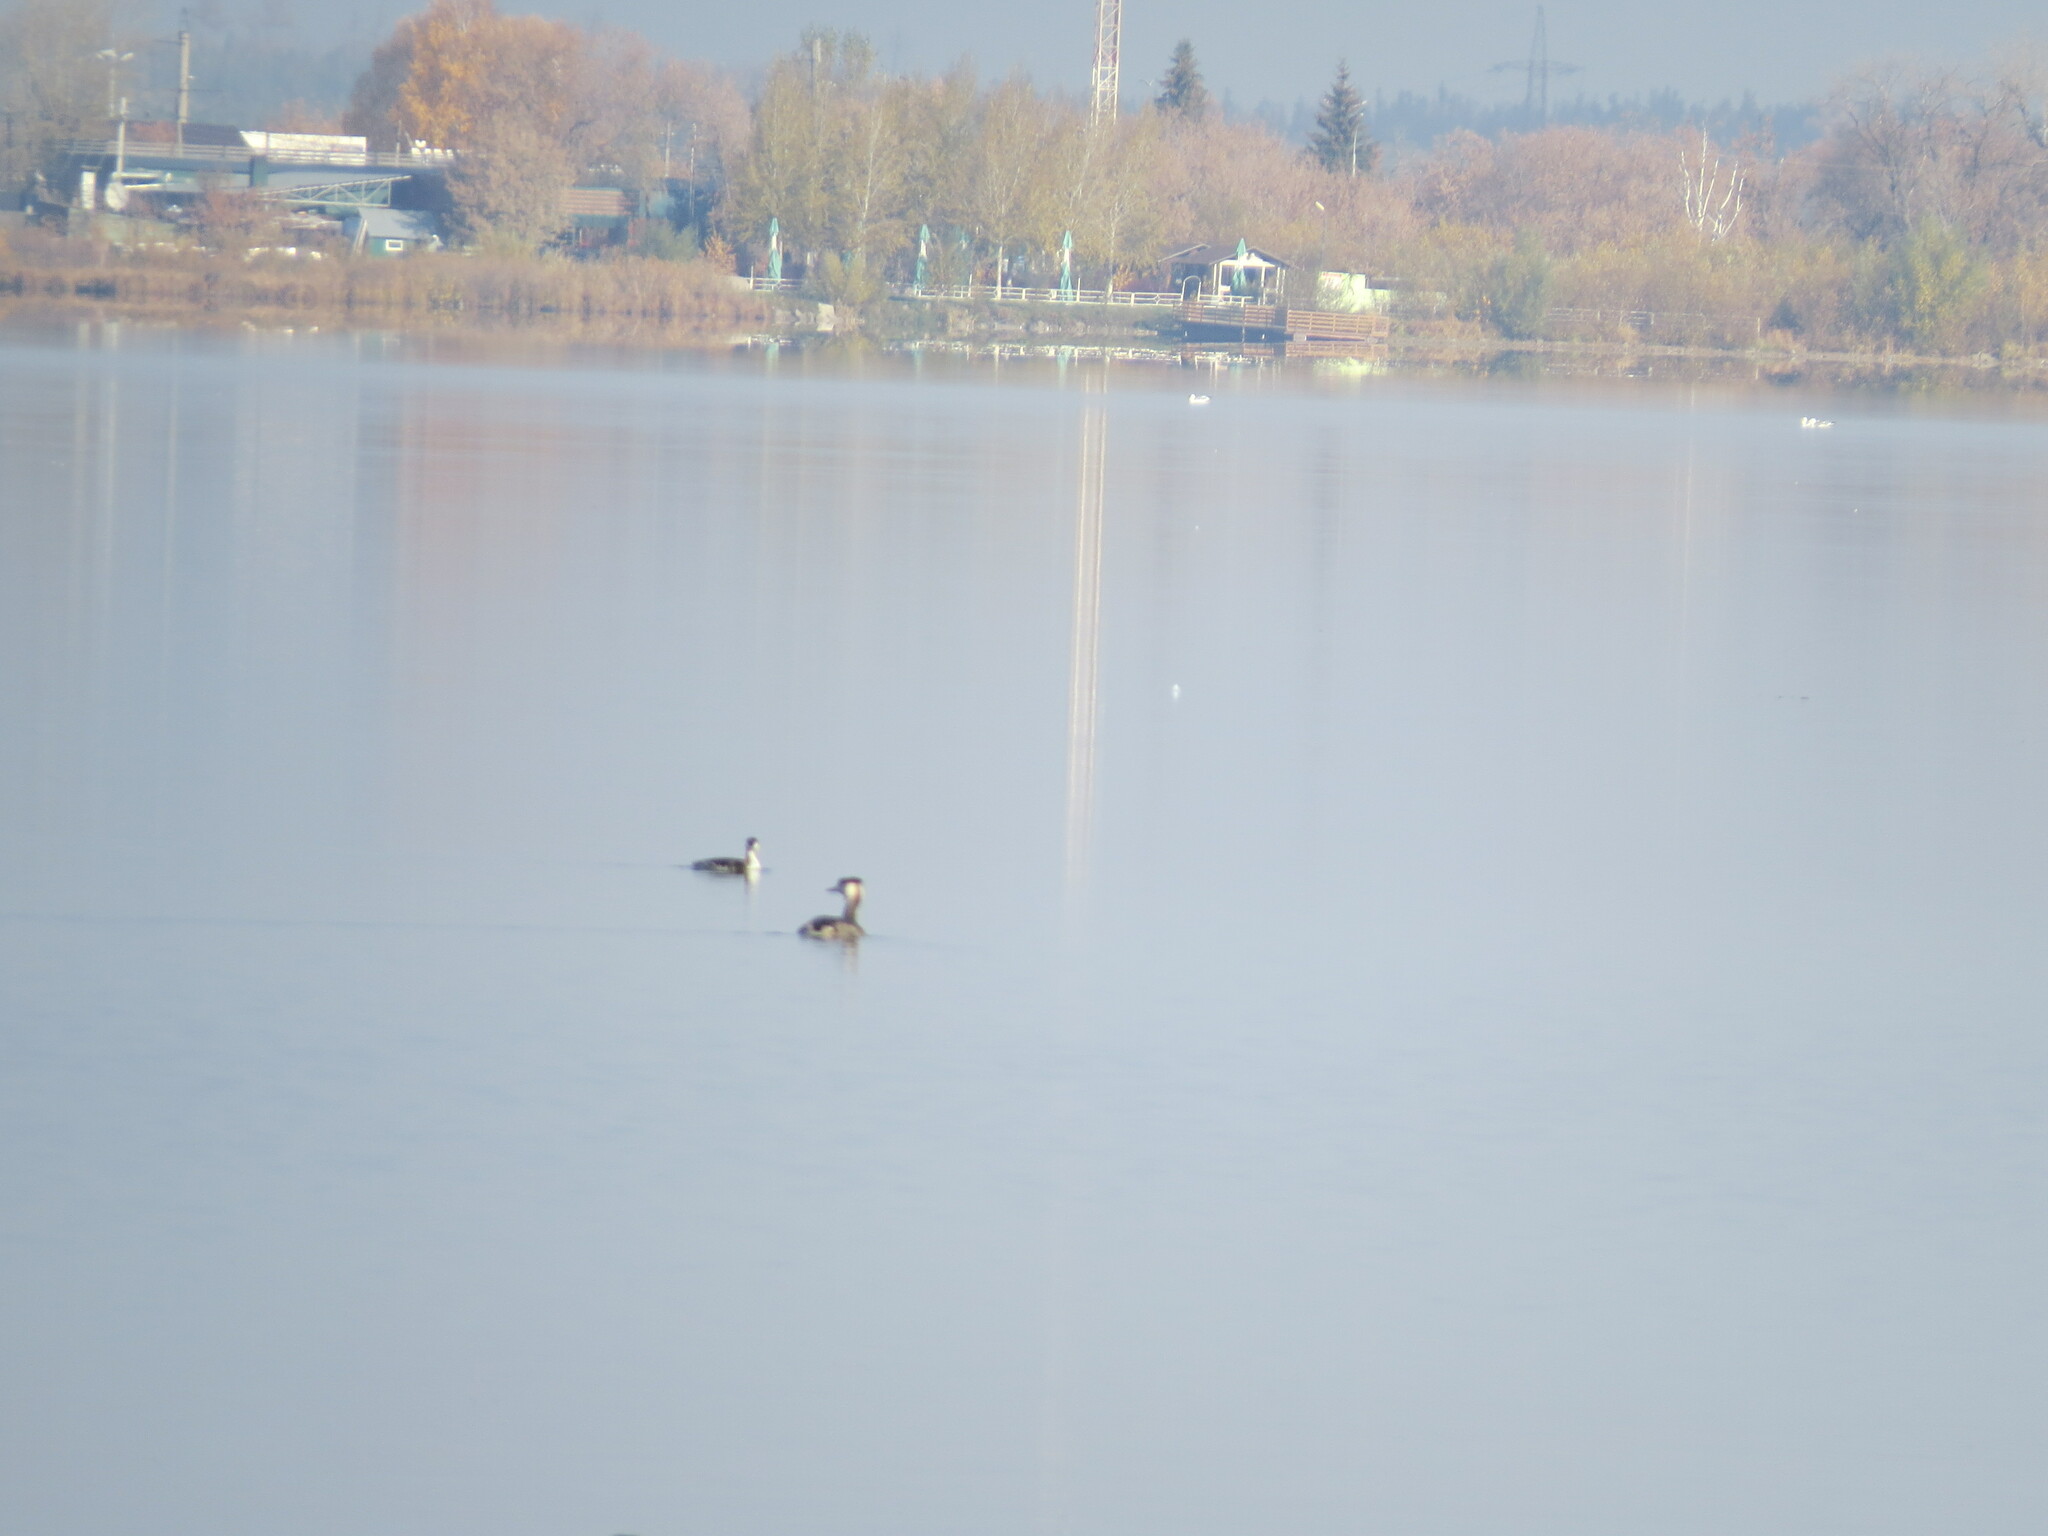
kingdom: Animalia
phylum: Chordata
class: Aves
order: Podicipediformes
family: Podicipedidae
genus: Podiceps
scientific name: Podiceps cristatus
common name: Great crested grebe
